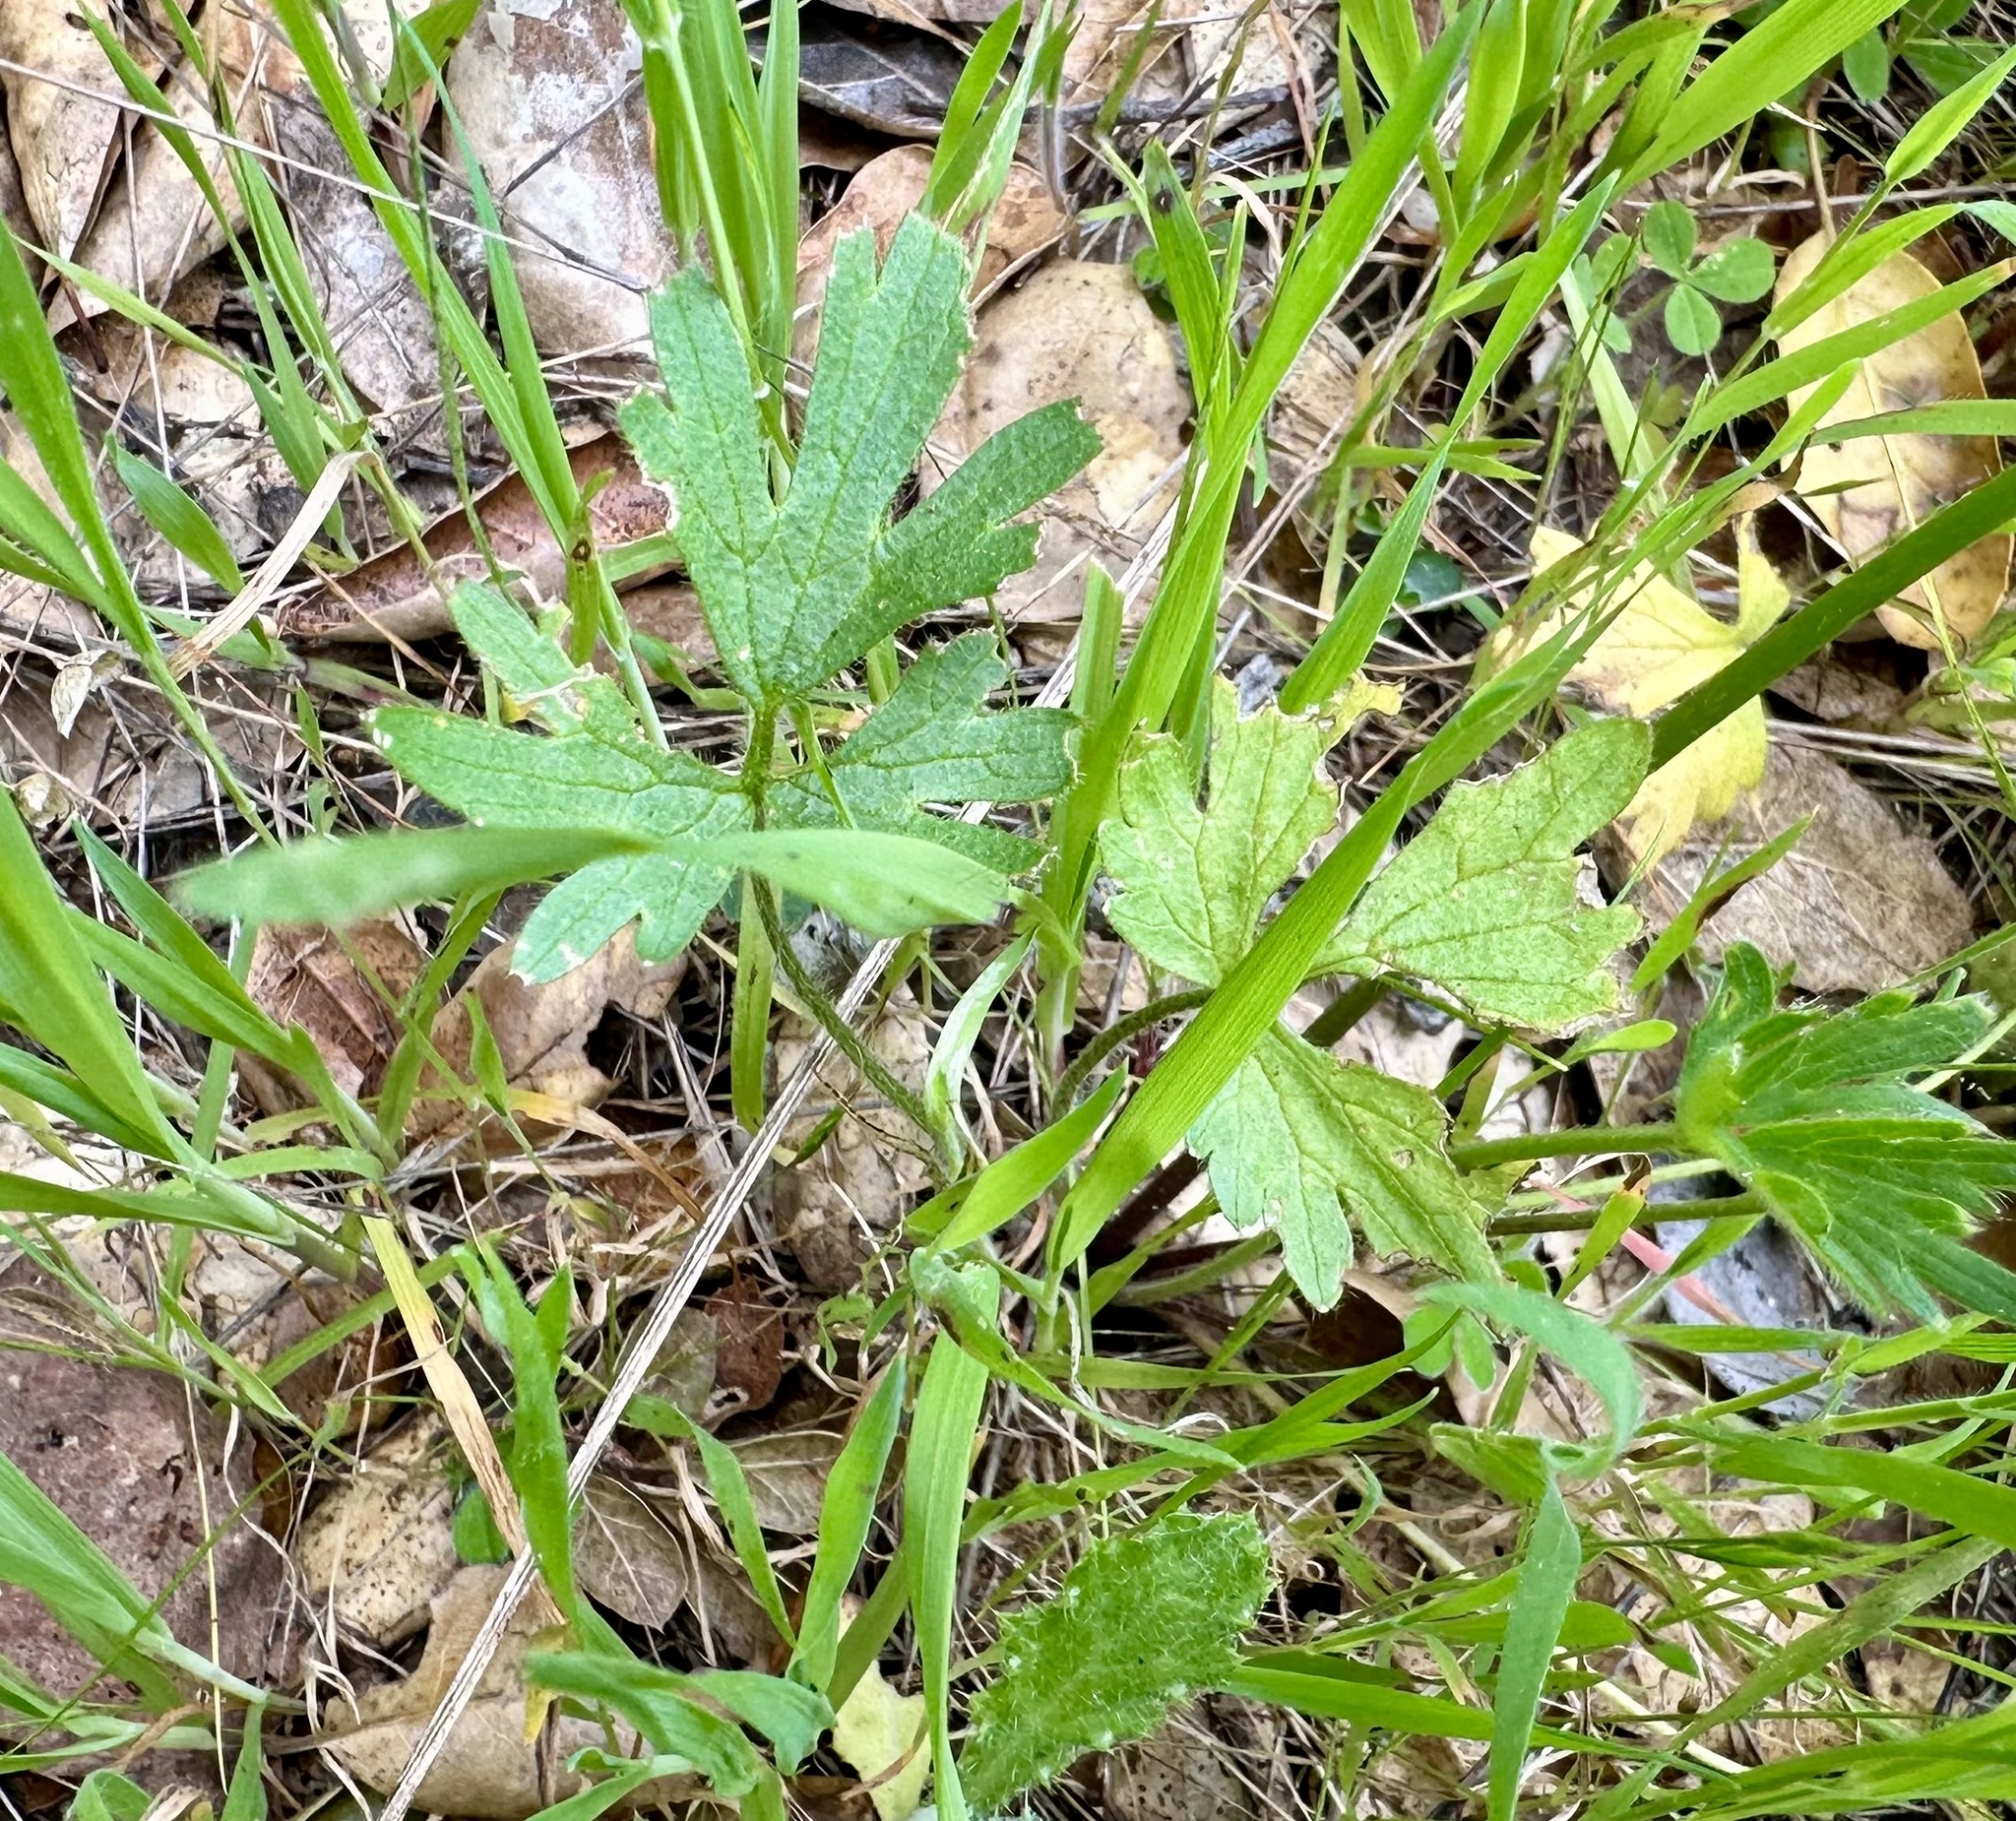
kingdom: Plantae
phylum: Tracheophyta
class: Magnoliopsida
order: Ranunculales
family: Ranunculaceae
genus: Ranunculus
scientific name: Ranunculus californicus
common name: California buttercup
